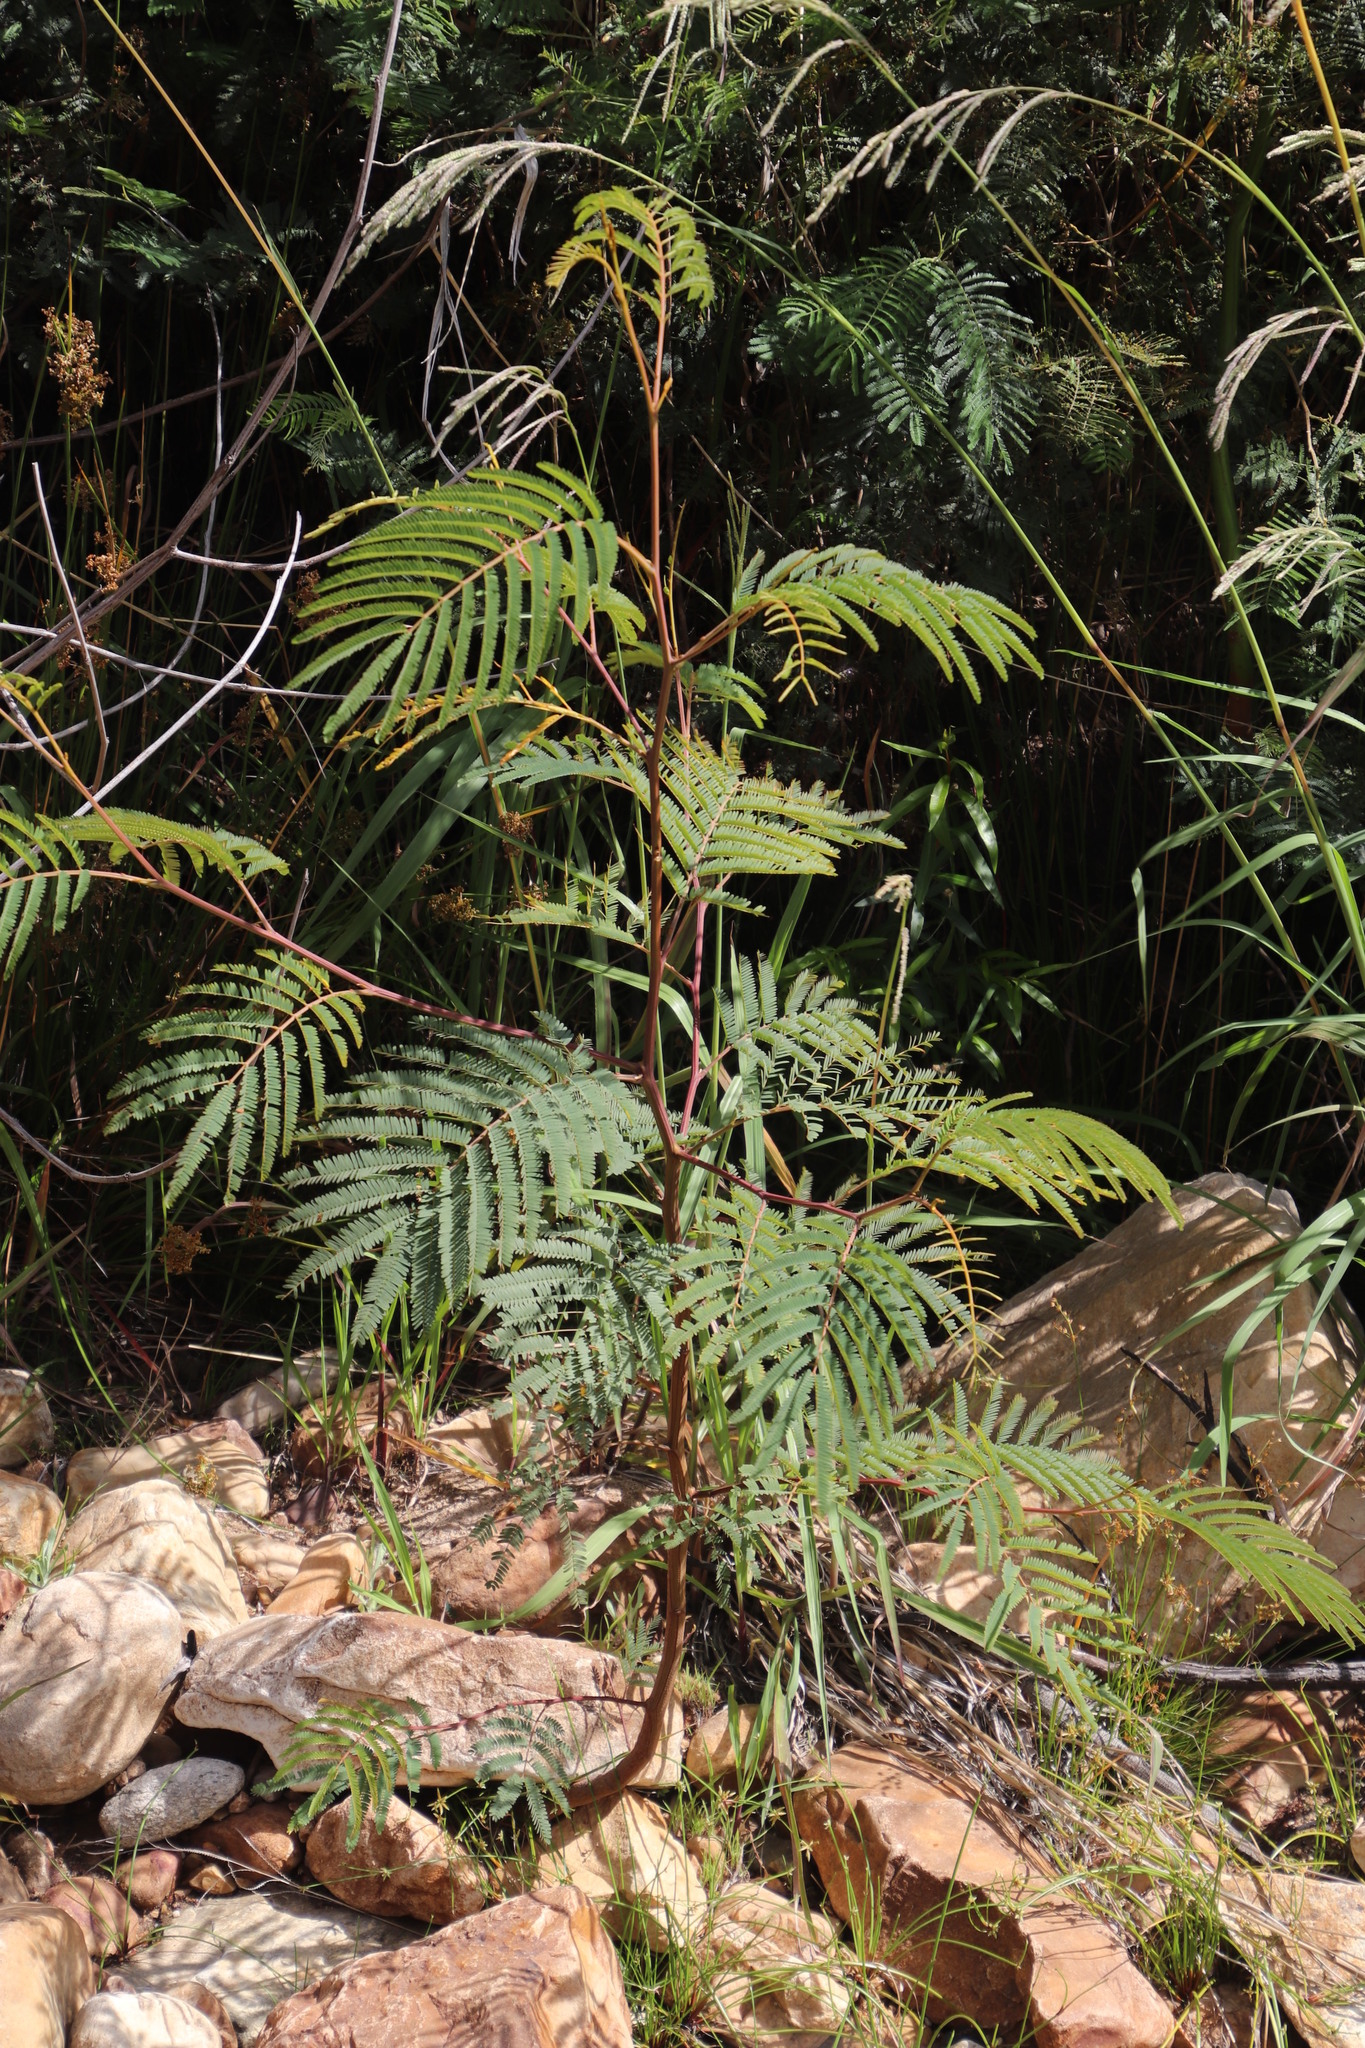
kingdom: Plantae
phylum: Tracheophyta
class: Magnoliopsida
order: Fabales
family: Fabaceae
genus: Paraserianthes
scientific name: Paraserianthes lophantha
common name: Plume albizia
